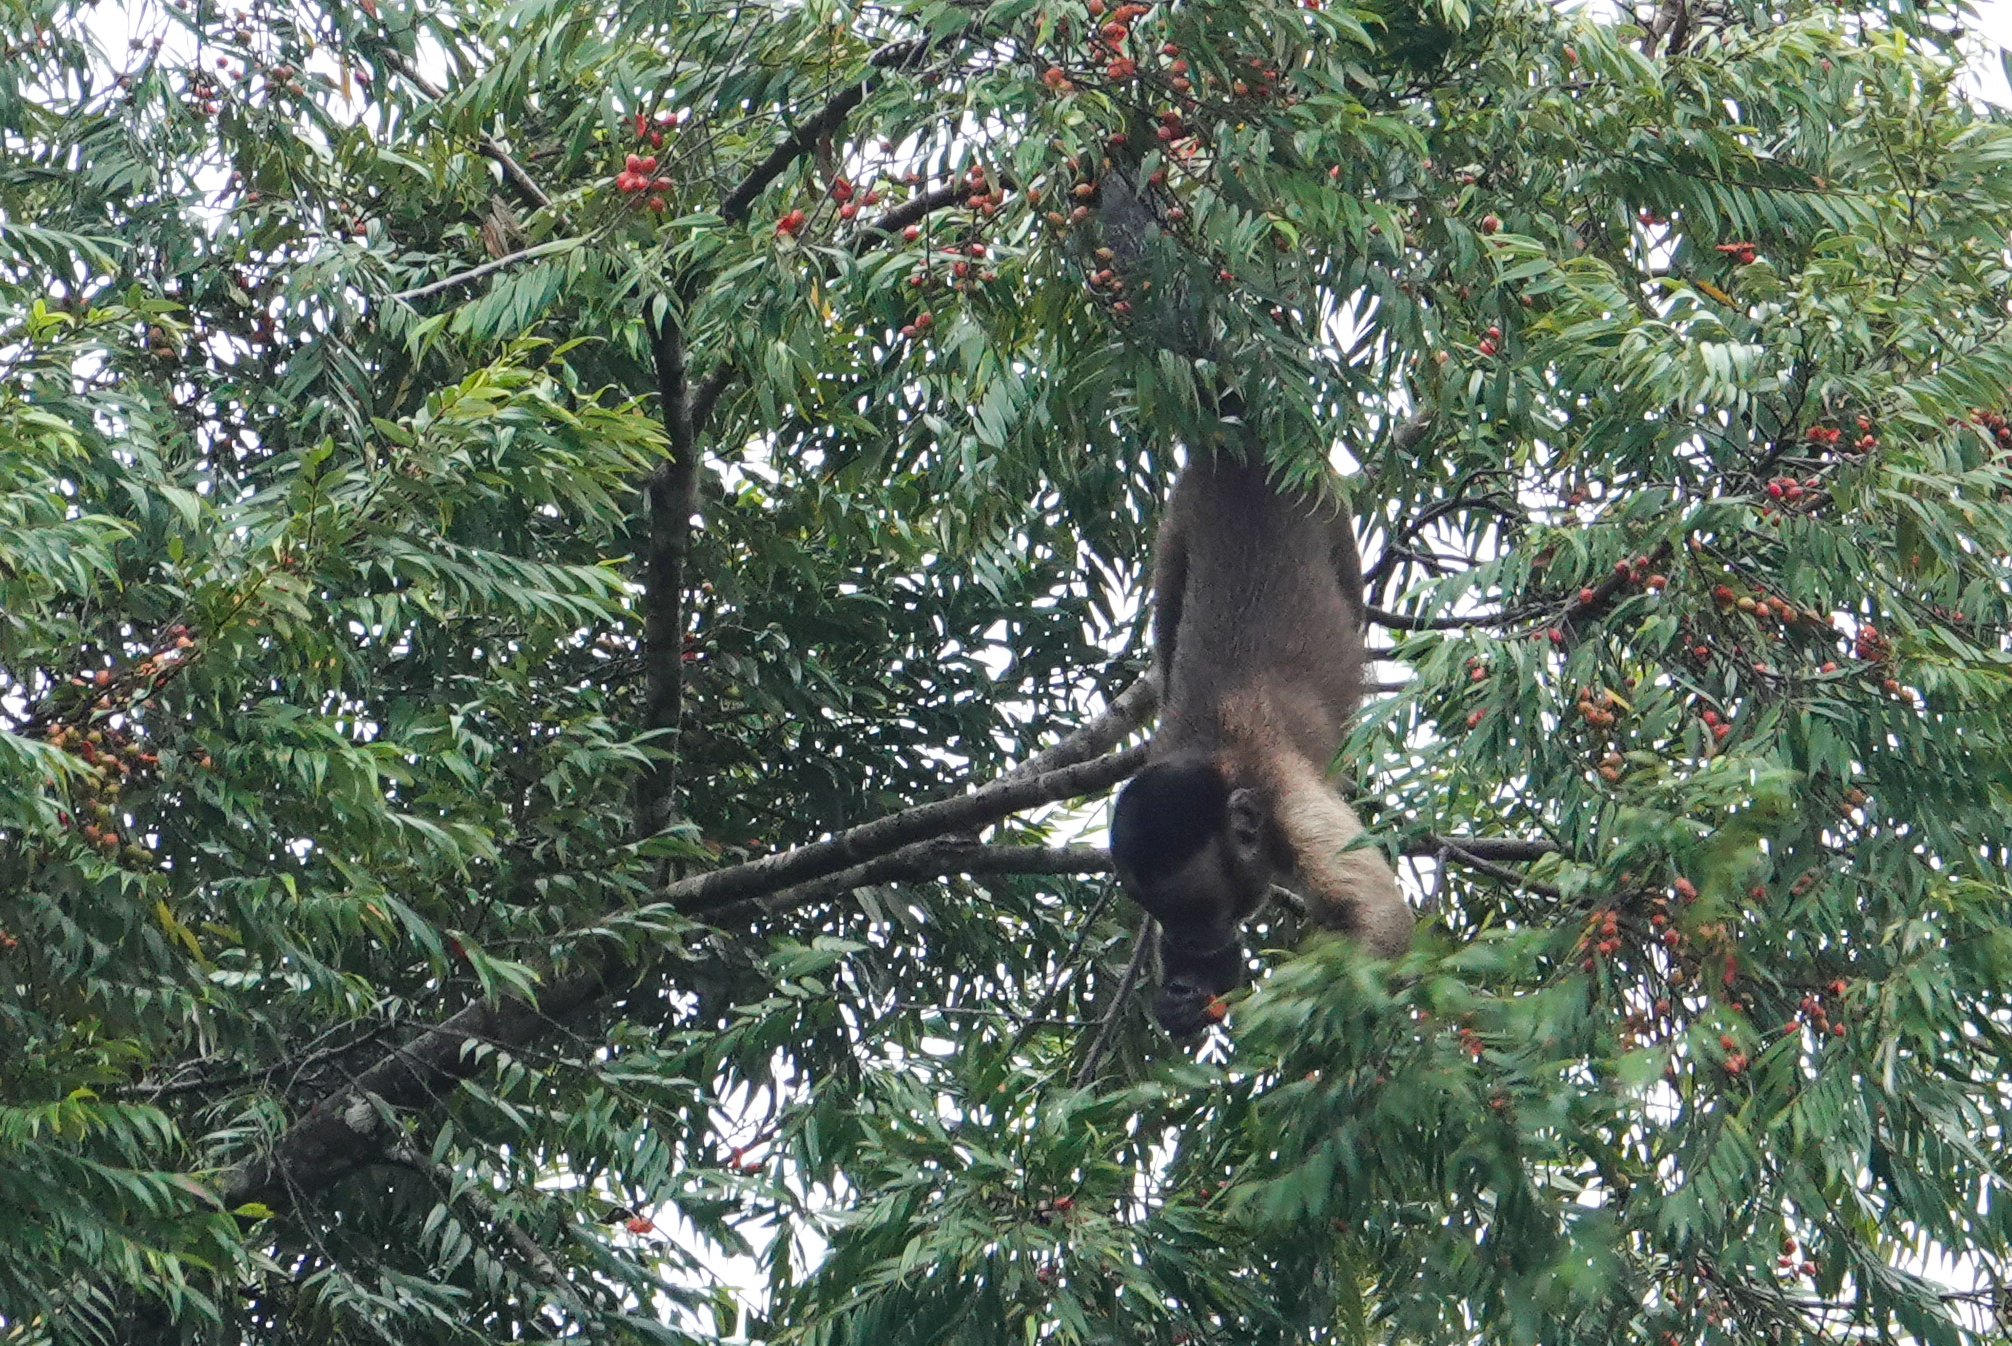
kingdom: Animalia
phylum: Chordata
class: Mammalia
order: Primates
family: Cebidae
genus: Sapajus
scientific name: Sapajus apella
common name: Tufted capuchin
